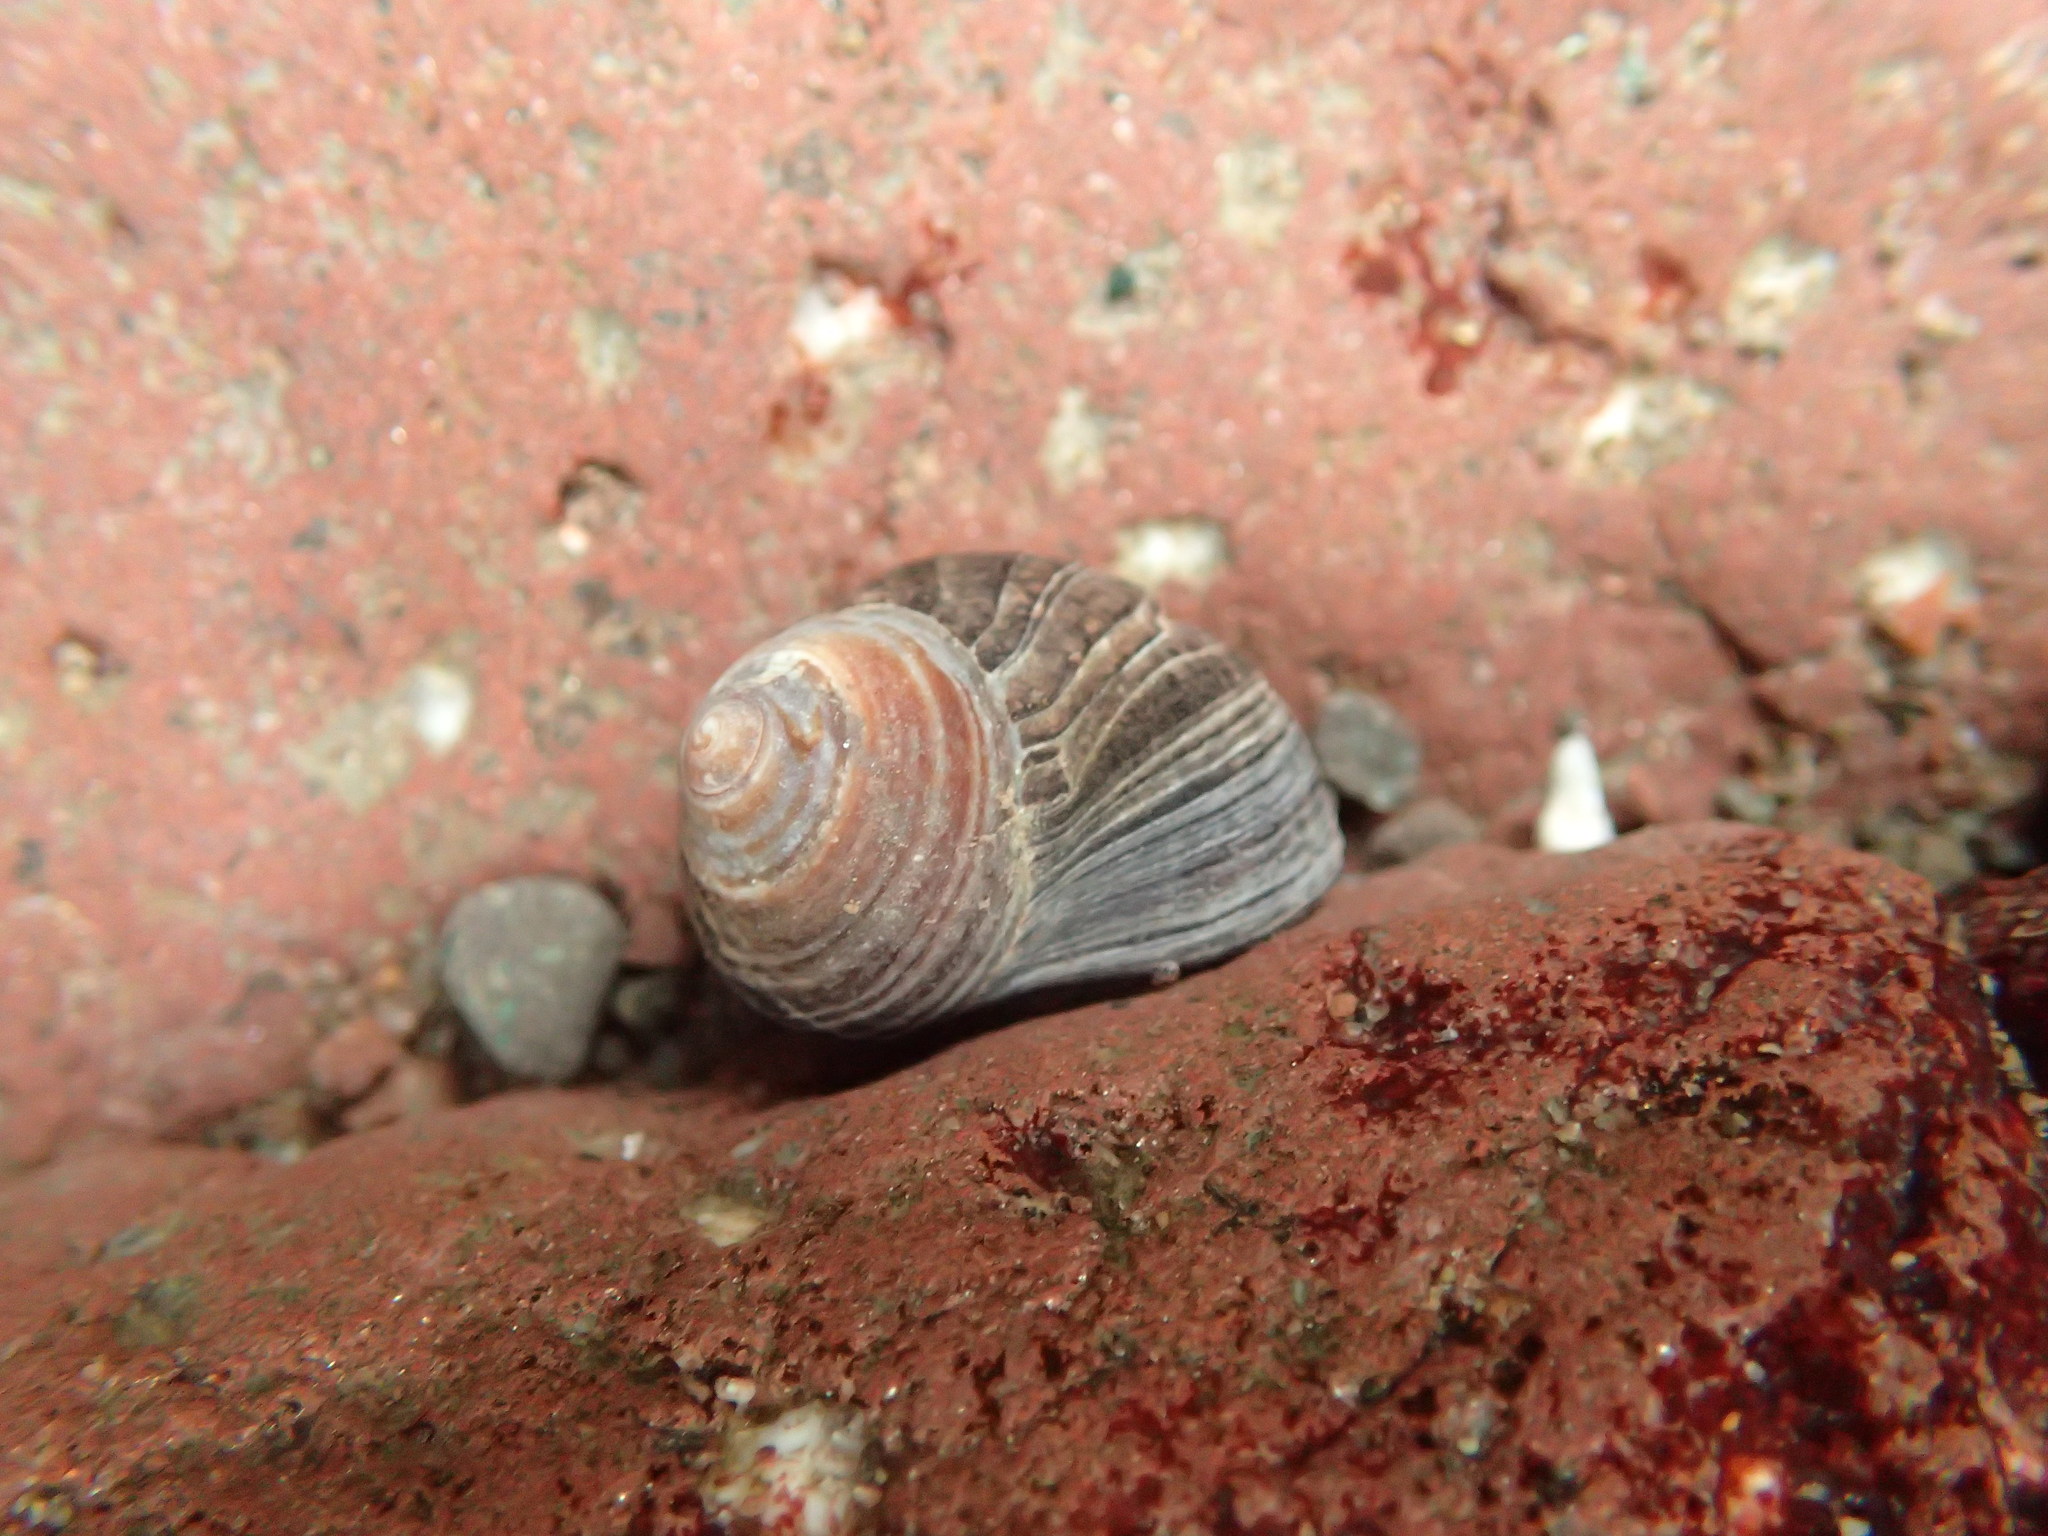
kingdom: Animalia
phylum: Mollusca
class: Gastropoda
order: Littorinimorpha
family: Littorinidae
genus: Littorina
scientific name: Littorina littorea
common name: Common periwinkle
